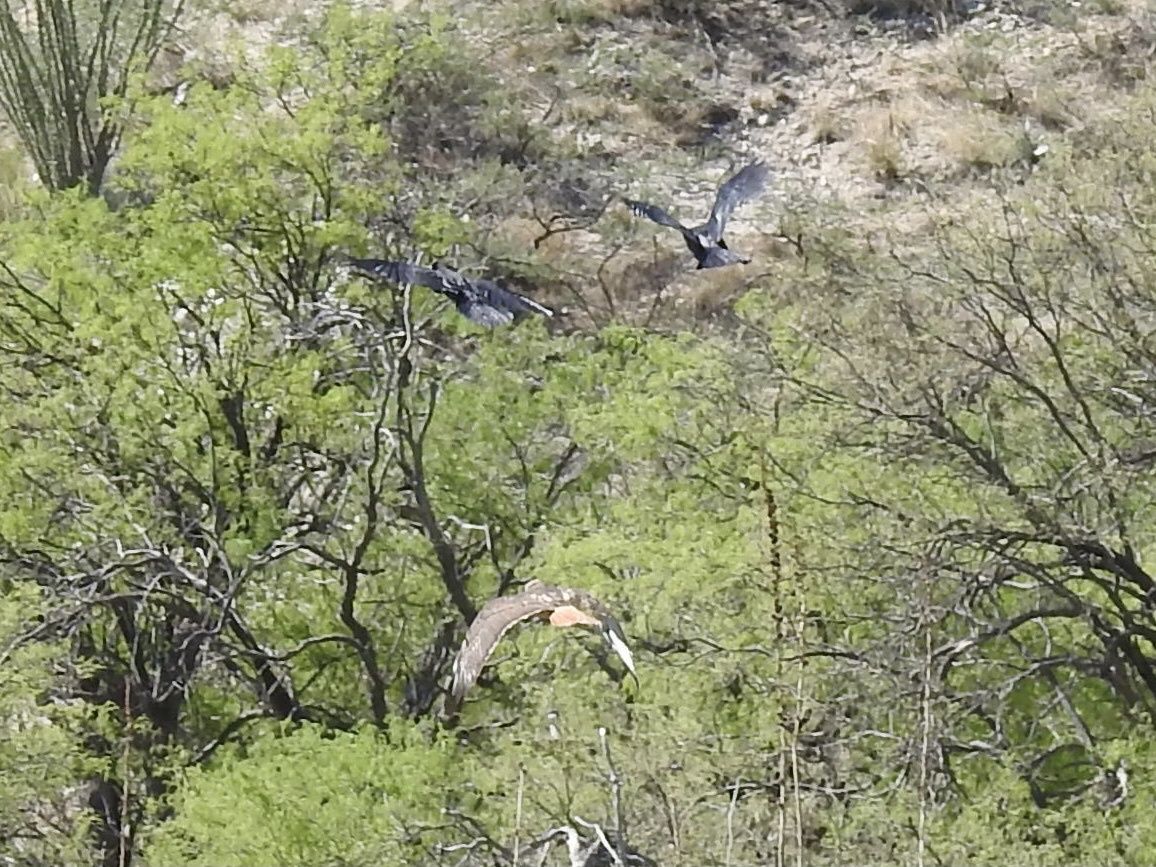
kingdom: Animalia
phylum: Chordata
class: Aves
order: Accipitriformes
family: Accipitridae
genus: Buteo
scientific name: Buteo jamaicensis
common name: Red-tailed hawk
